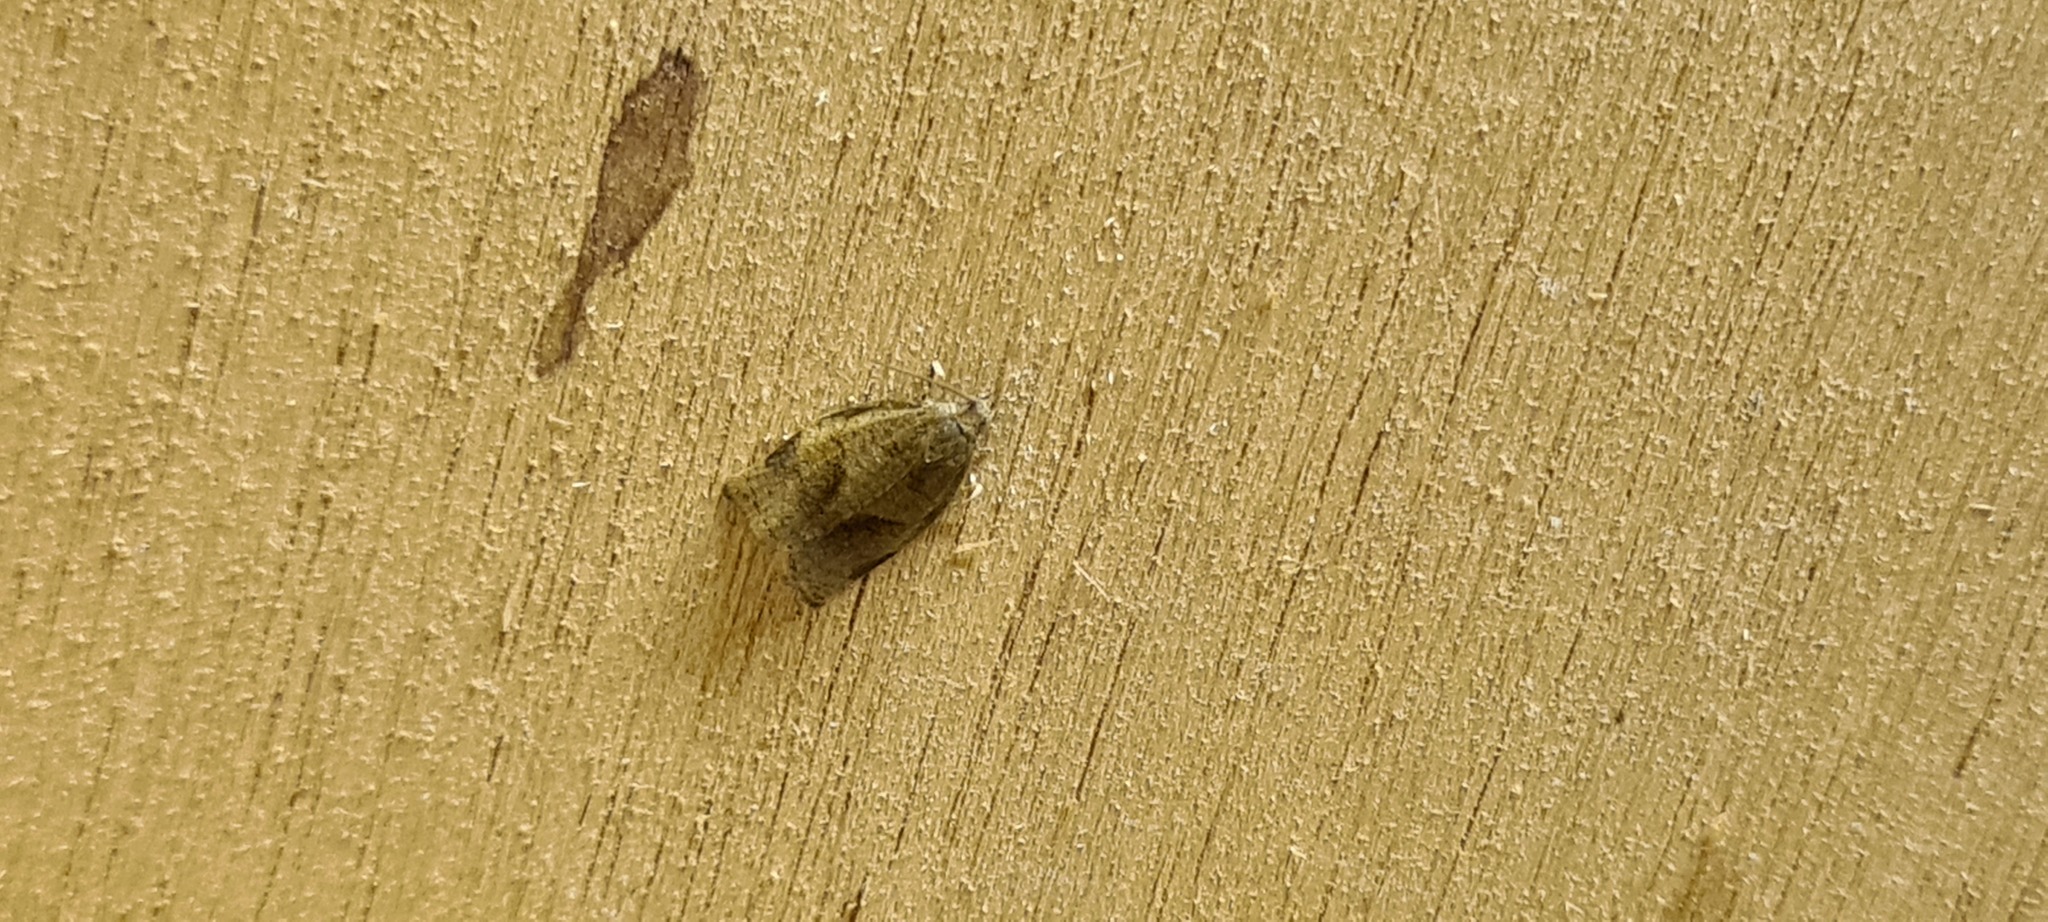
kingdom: Animalia
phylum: Arthropoda
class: Insecta
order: Lepidoptera
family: Tortricidae
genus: Archips
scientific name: Archips rosana
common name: Rose tortrix
